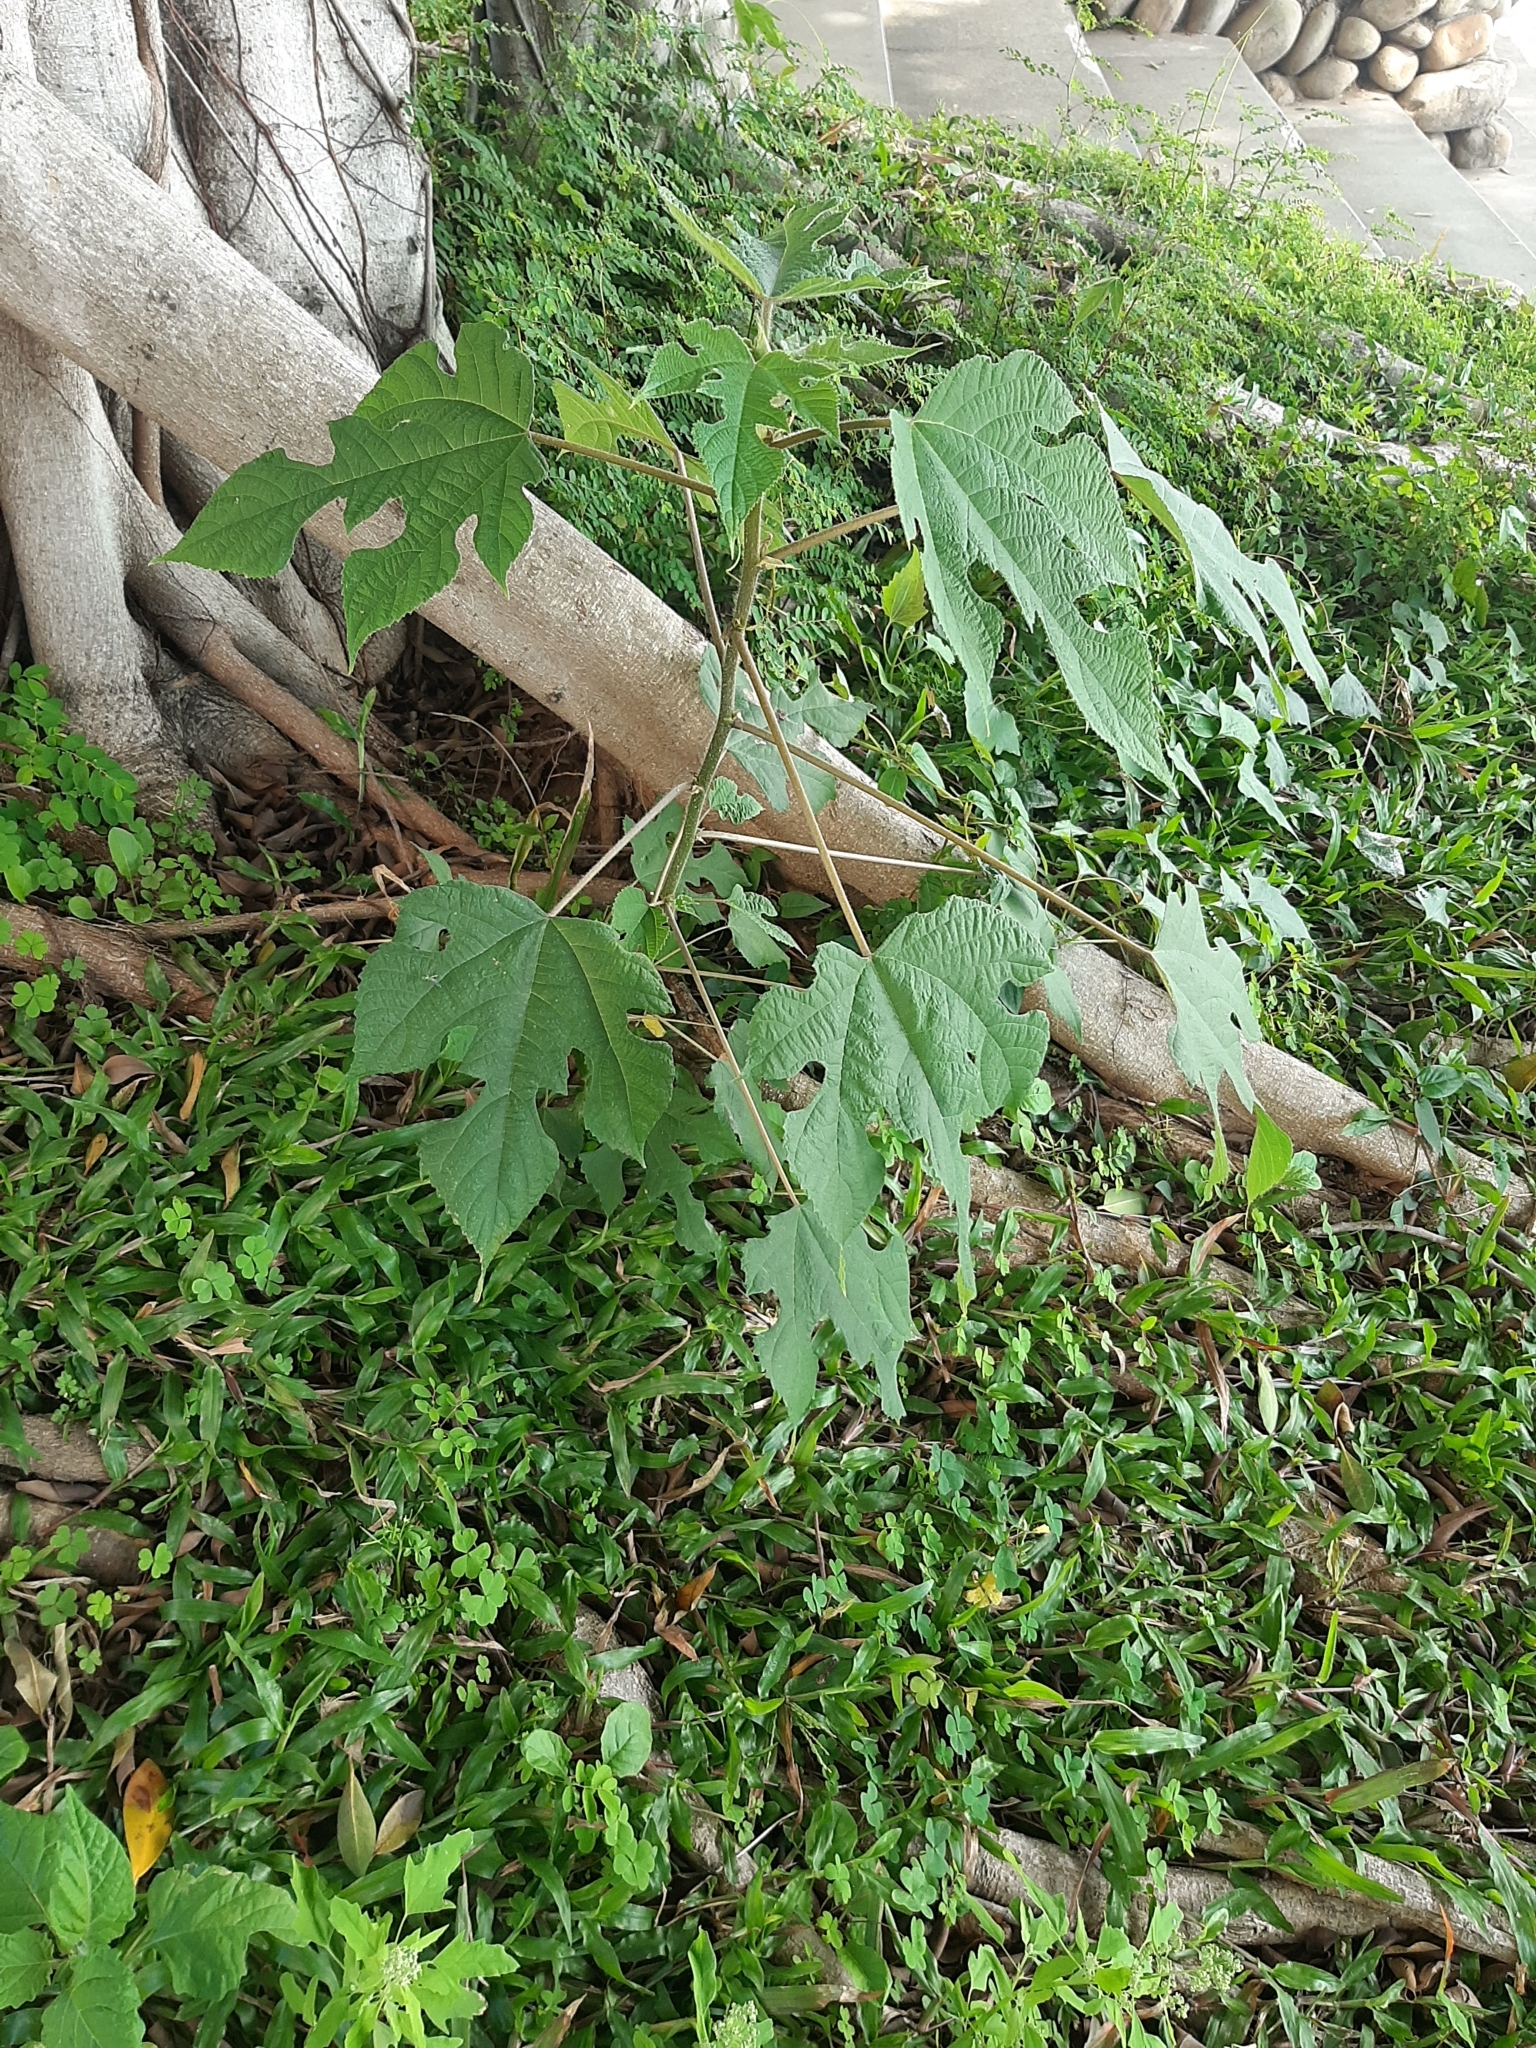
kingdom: Plantae
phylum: Tracheophyta
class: Magnoliopsida
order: Rosales
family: Moraceae
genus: Broussonetia
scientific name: Broussonetia papyrifera
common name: Paper mulberry
